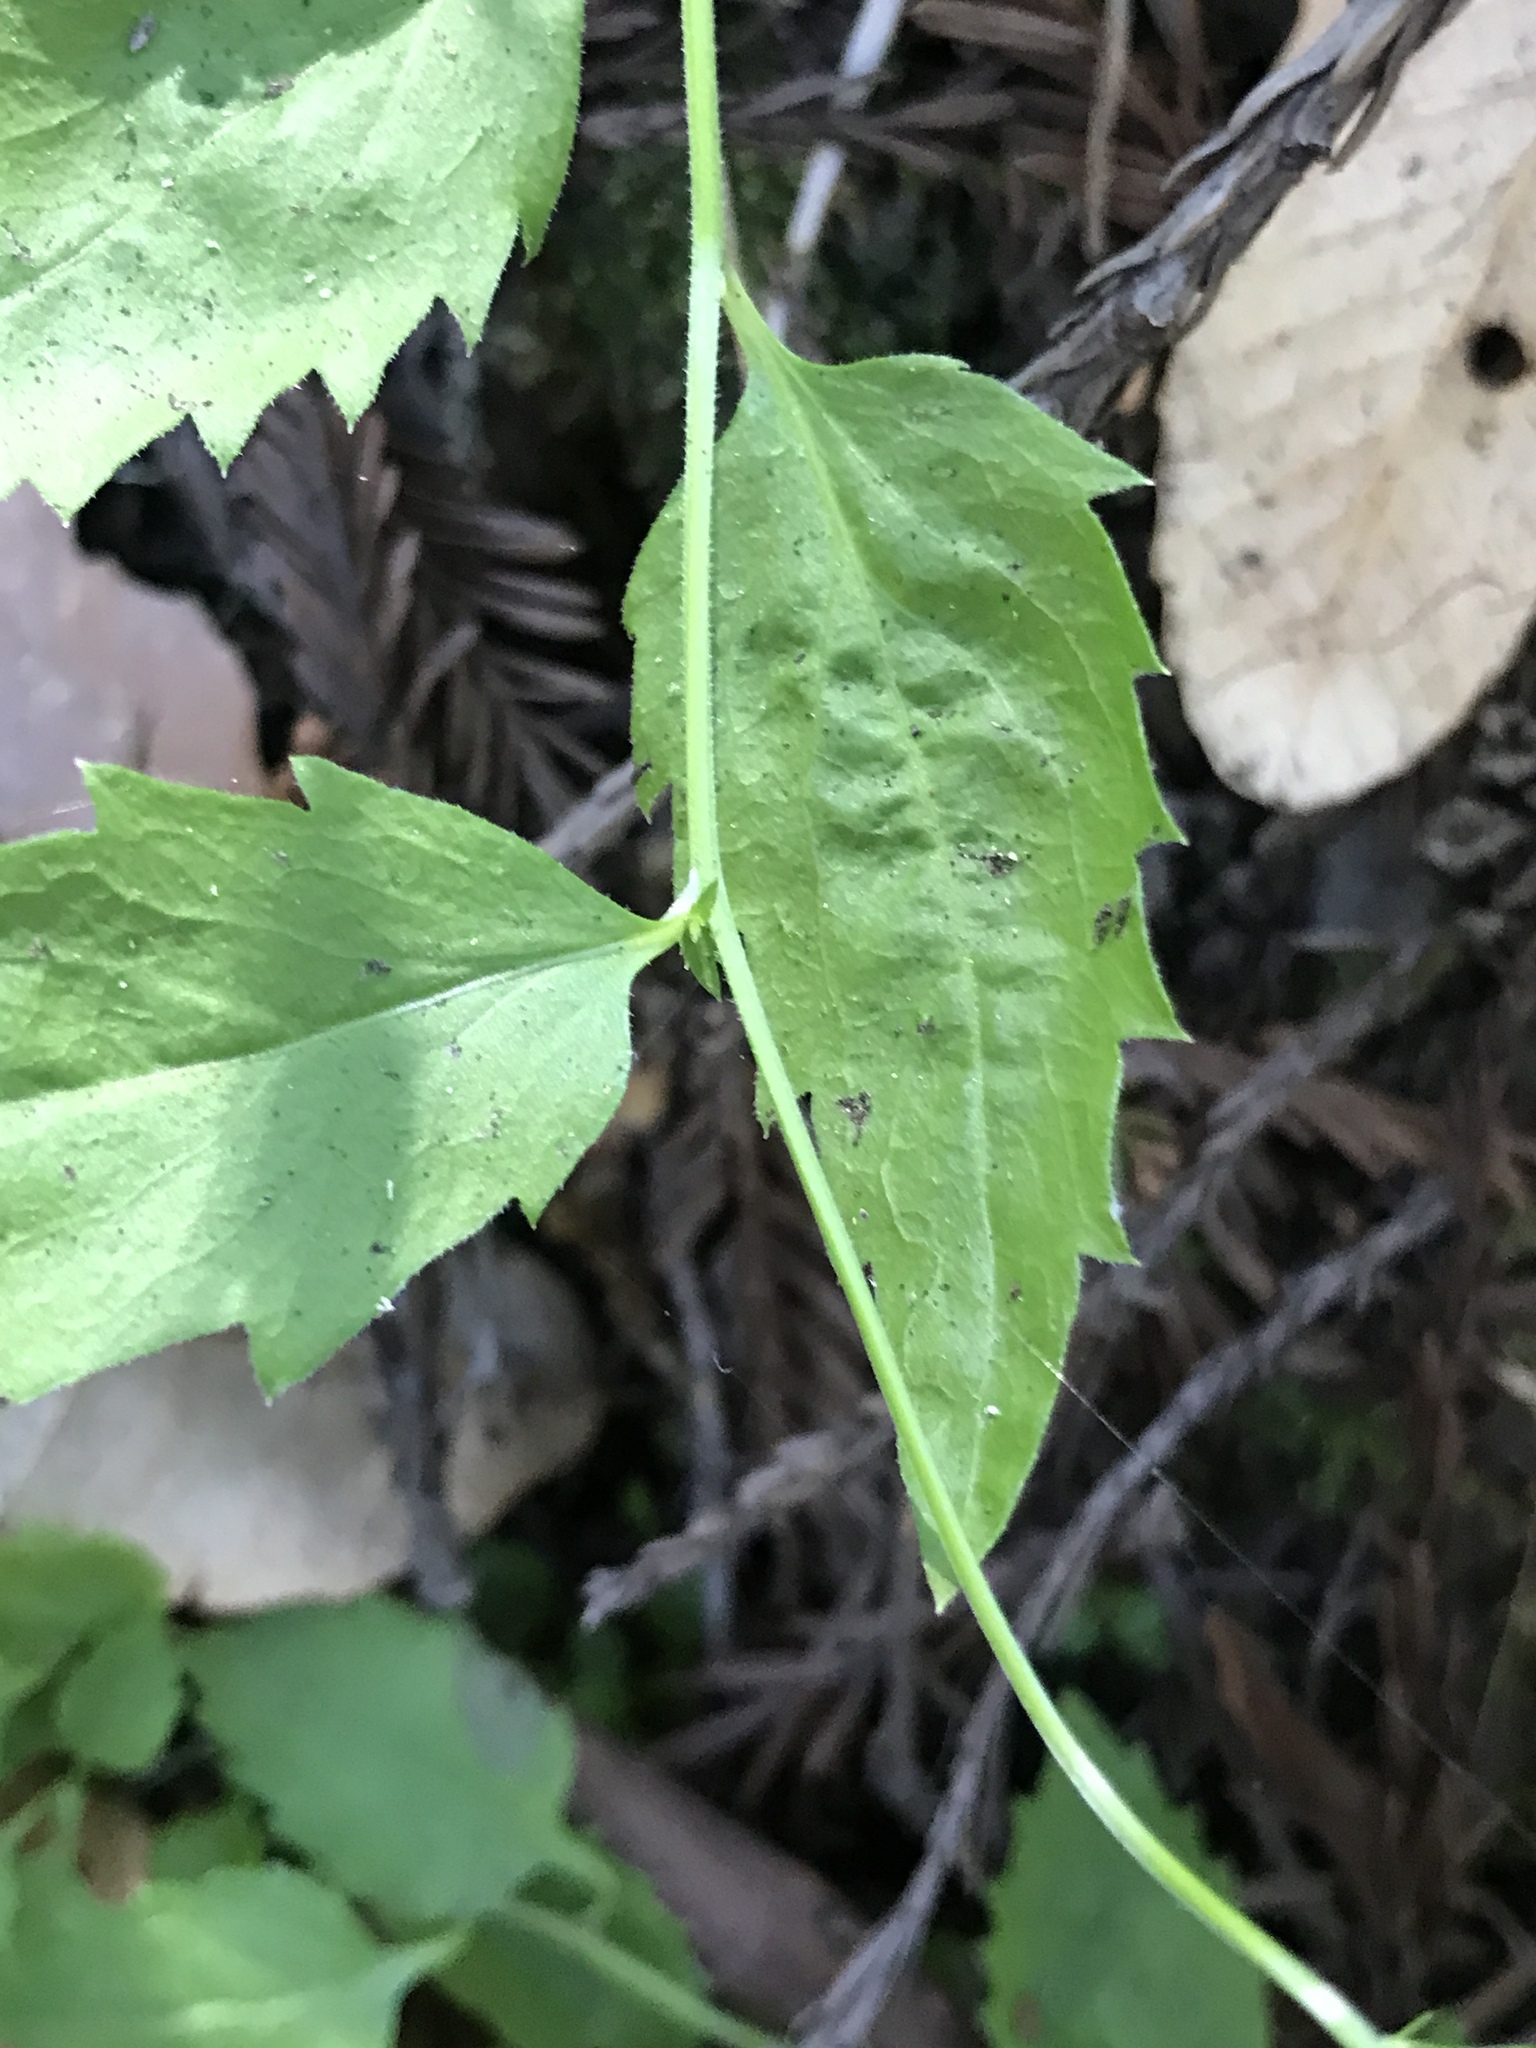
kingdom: Plantae
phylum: Tracheophyta
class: Magnoliopsida
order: Asterales
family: Campanulaceae
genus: Smithiastrum
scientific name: Smithiastrum prenanthoides
